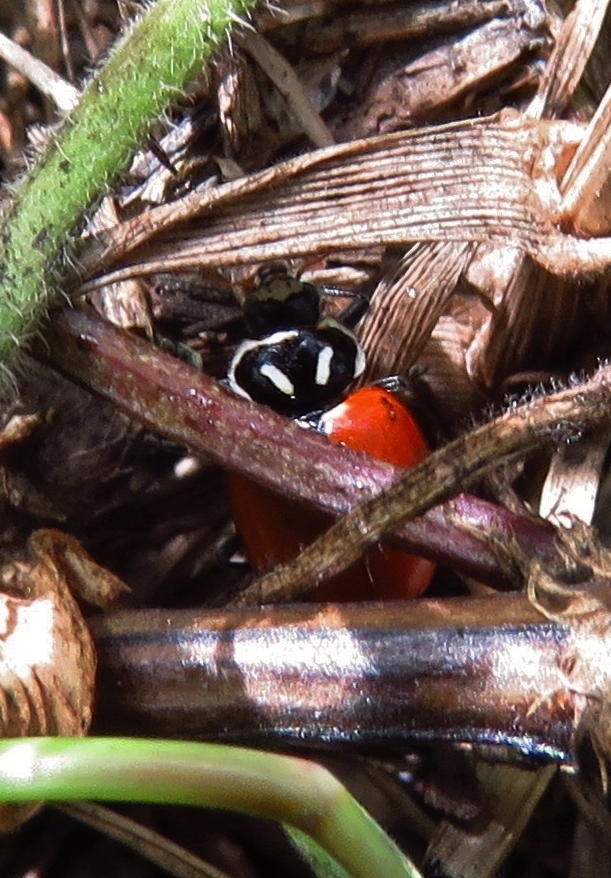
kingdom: Animalia
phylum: Arthropoda
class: Insecta
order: Coleoptera
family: Coccinellidae
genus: Hippodamia
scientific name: Hippodamia convergens
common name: Convergent lady beetle
